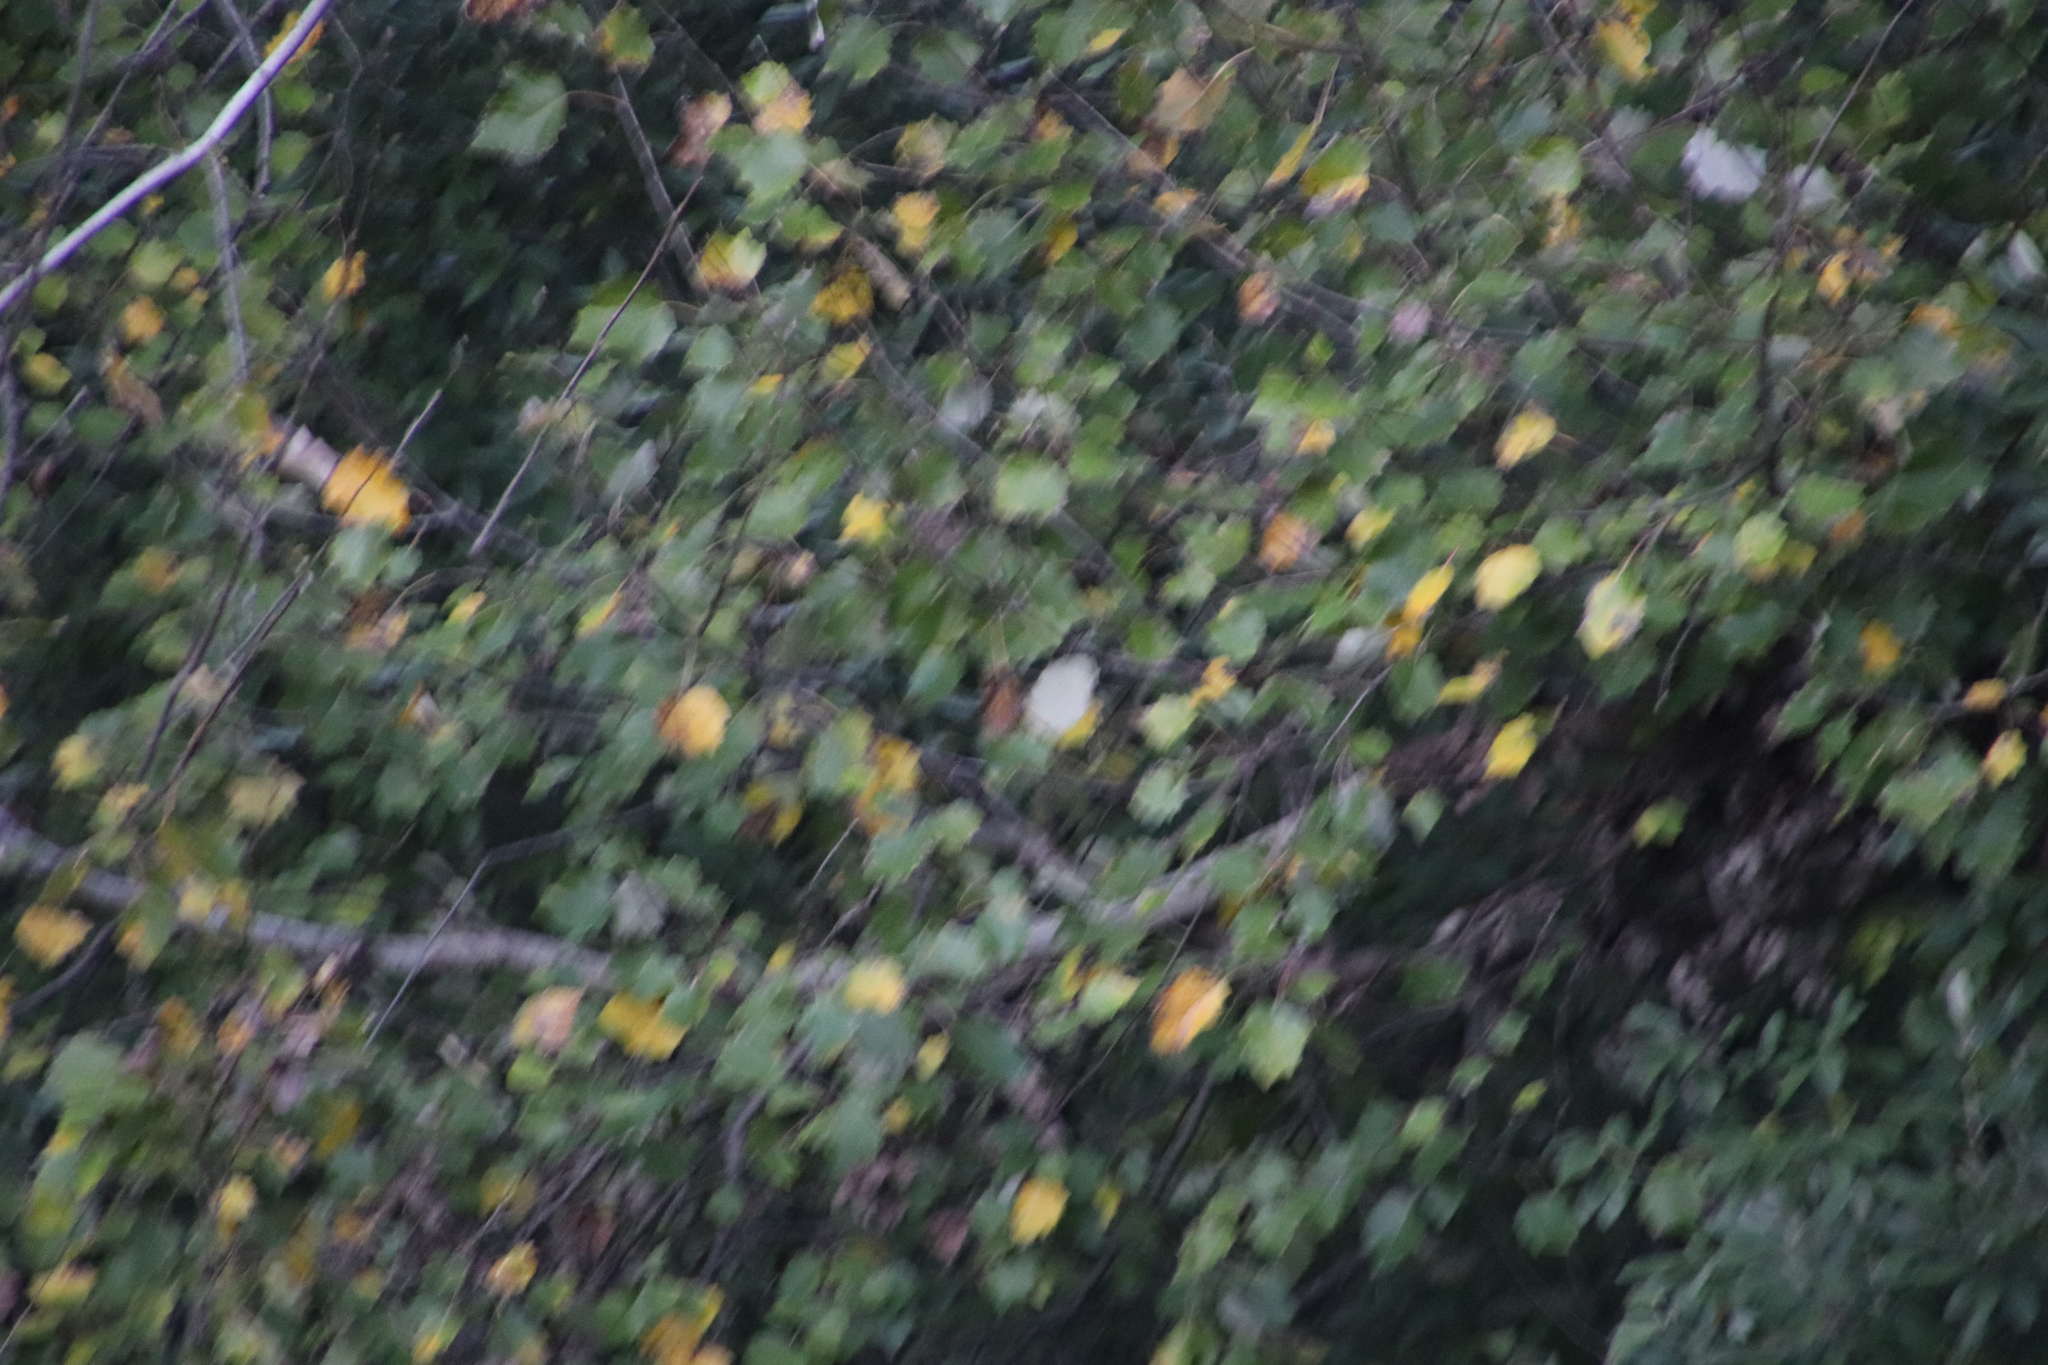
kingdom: Plantae
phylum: Tracheophyta
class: Magnoliopsida
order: Malpighiales
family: Salicaceae
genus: Populus
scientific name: Populus canescens
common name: Gray poplar
